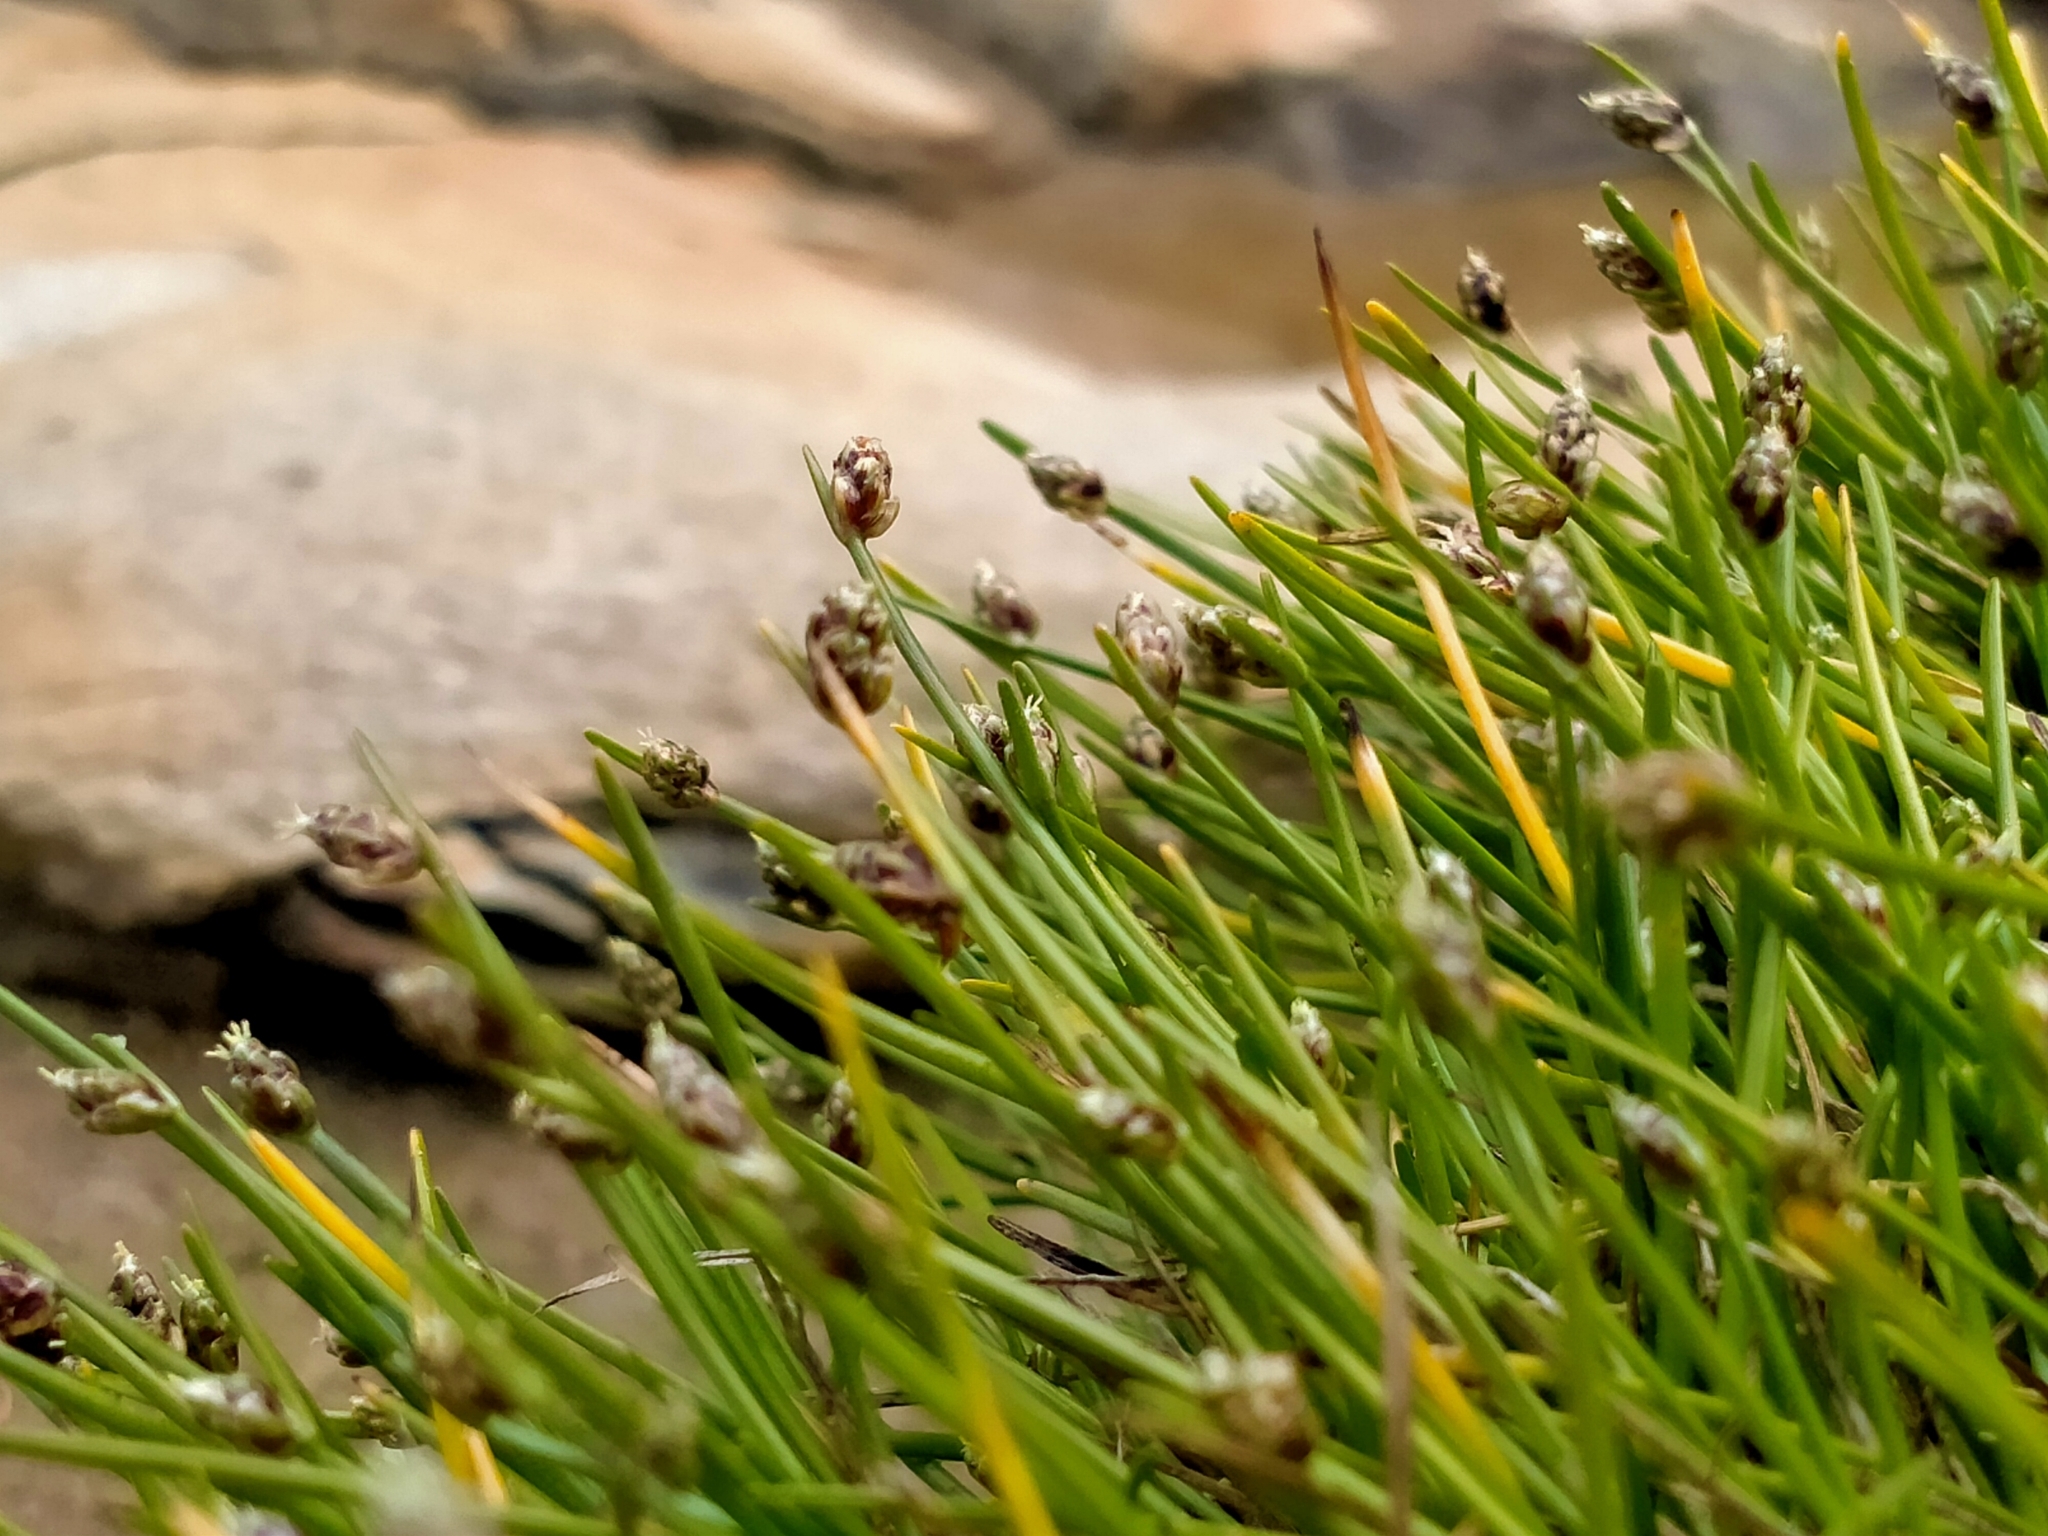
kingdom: Plantae
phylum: Tracheophyta
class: Liliopsida
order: Poales
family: Cyperaceae
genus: Isolepis
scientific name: Isolepis cernua
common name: Slender club-rush
